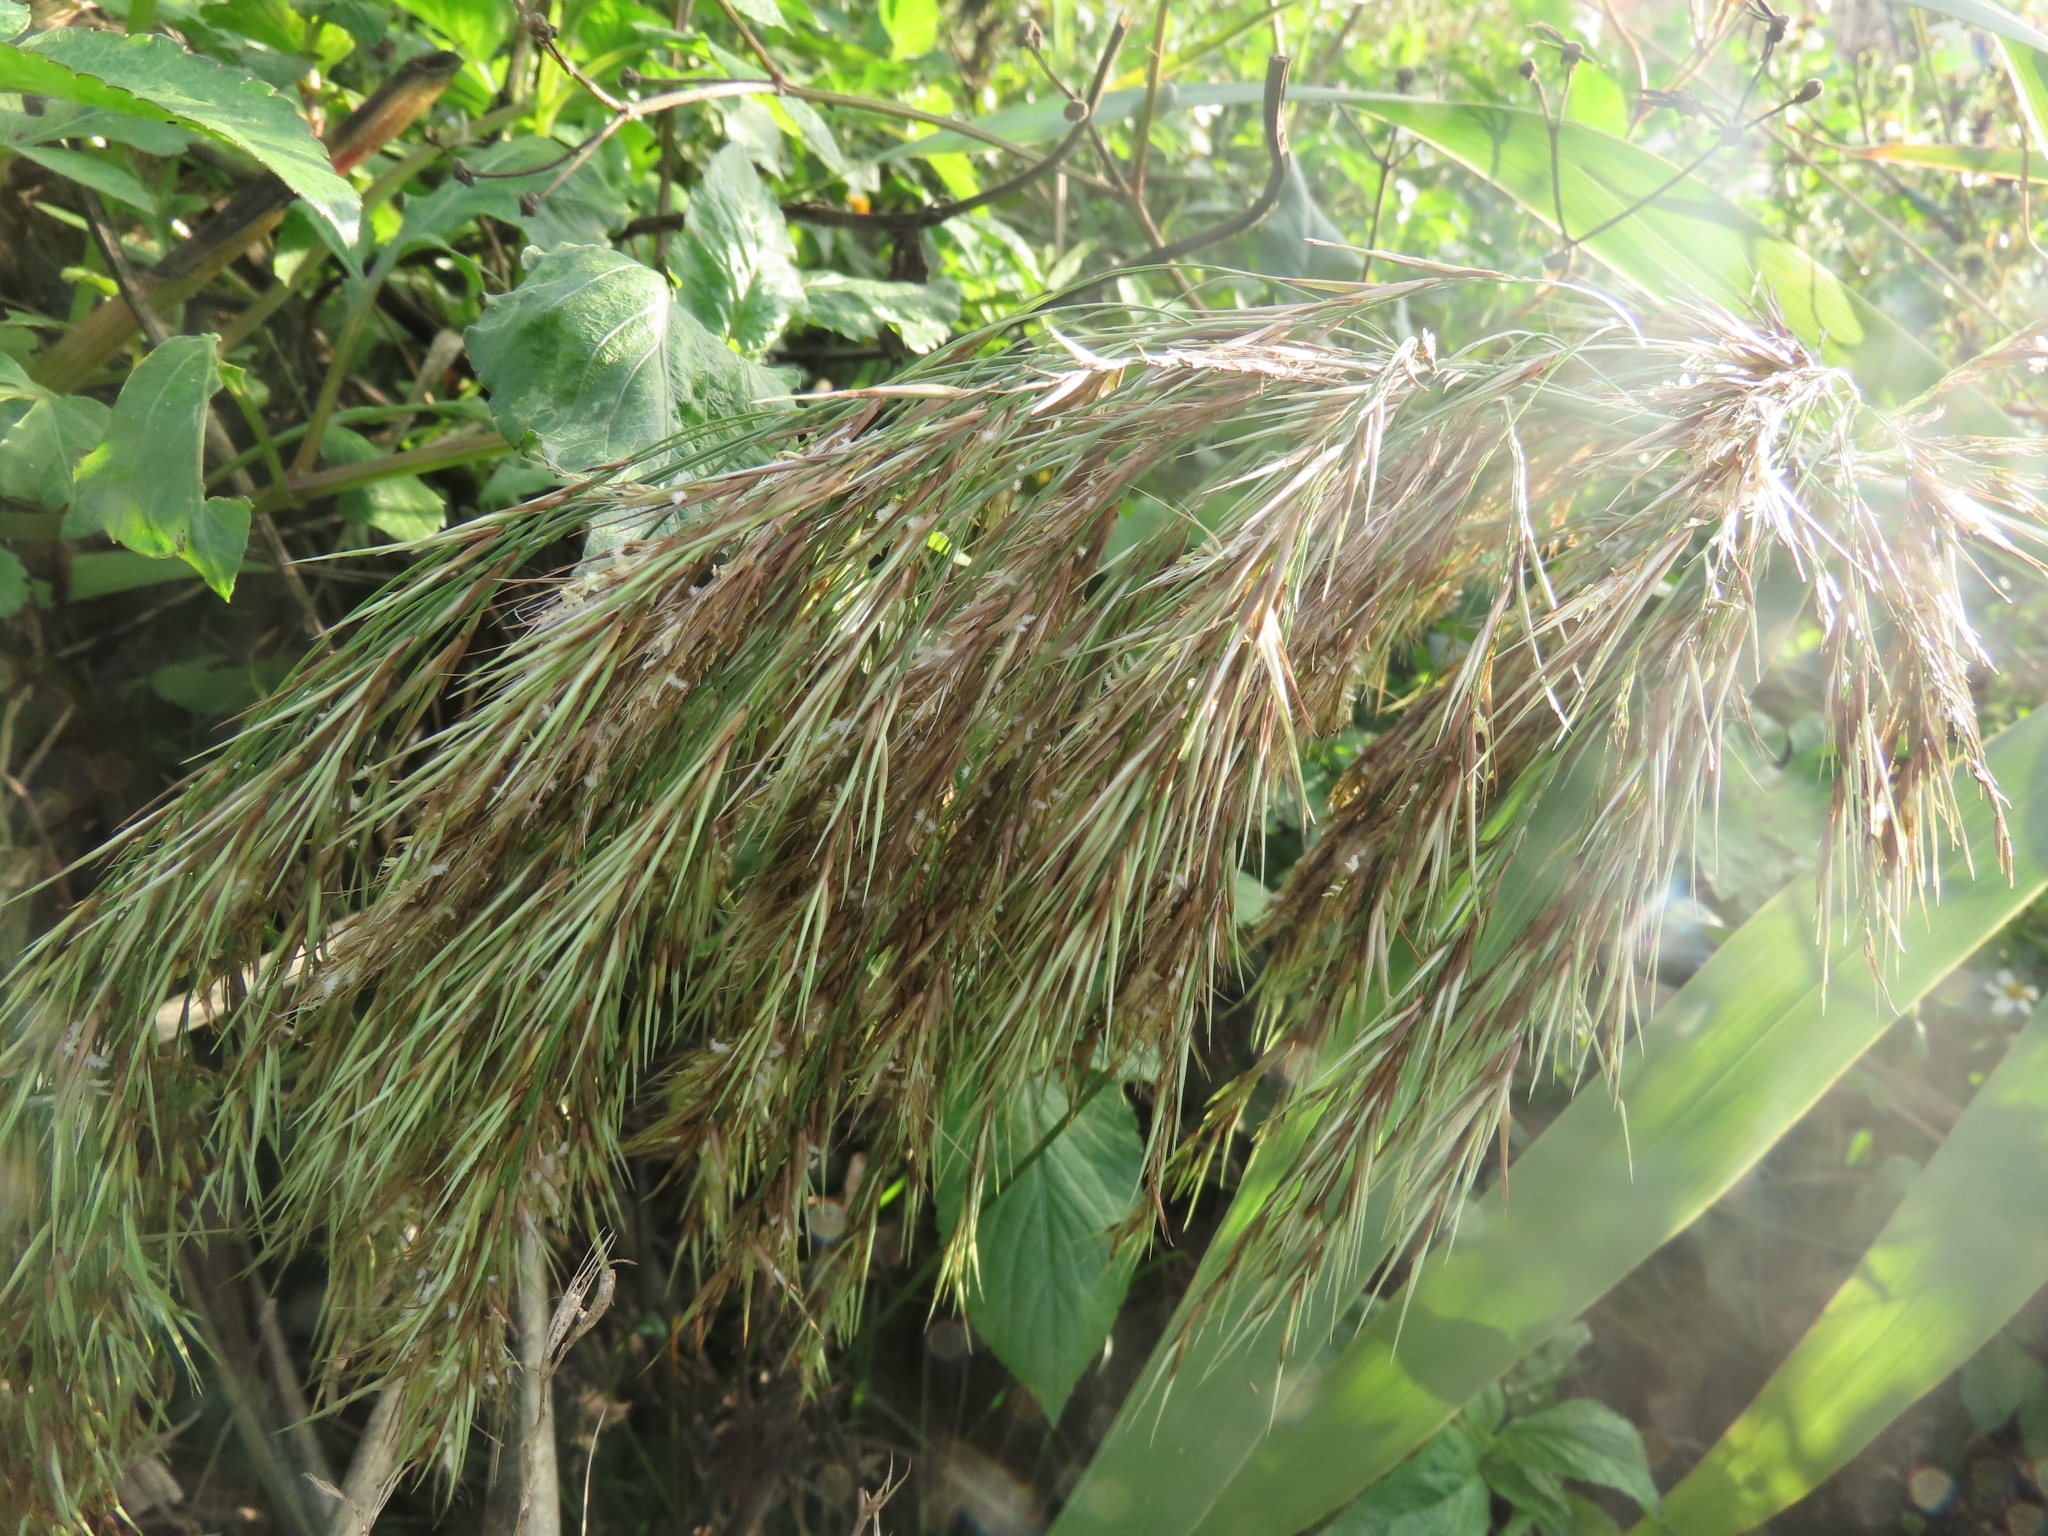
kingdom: Plantae
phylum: Tracheophyta
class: Liliopsida
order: Poales
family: Poaceae
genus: Phragmites
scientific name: Phragmites australis
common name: Common reed
